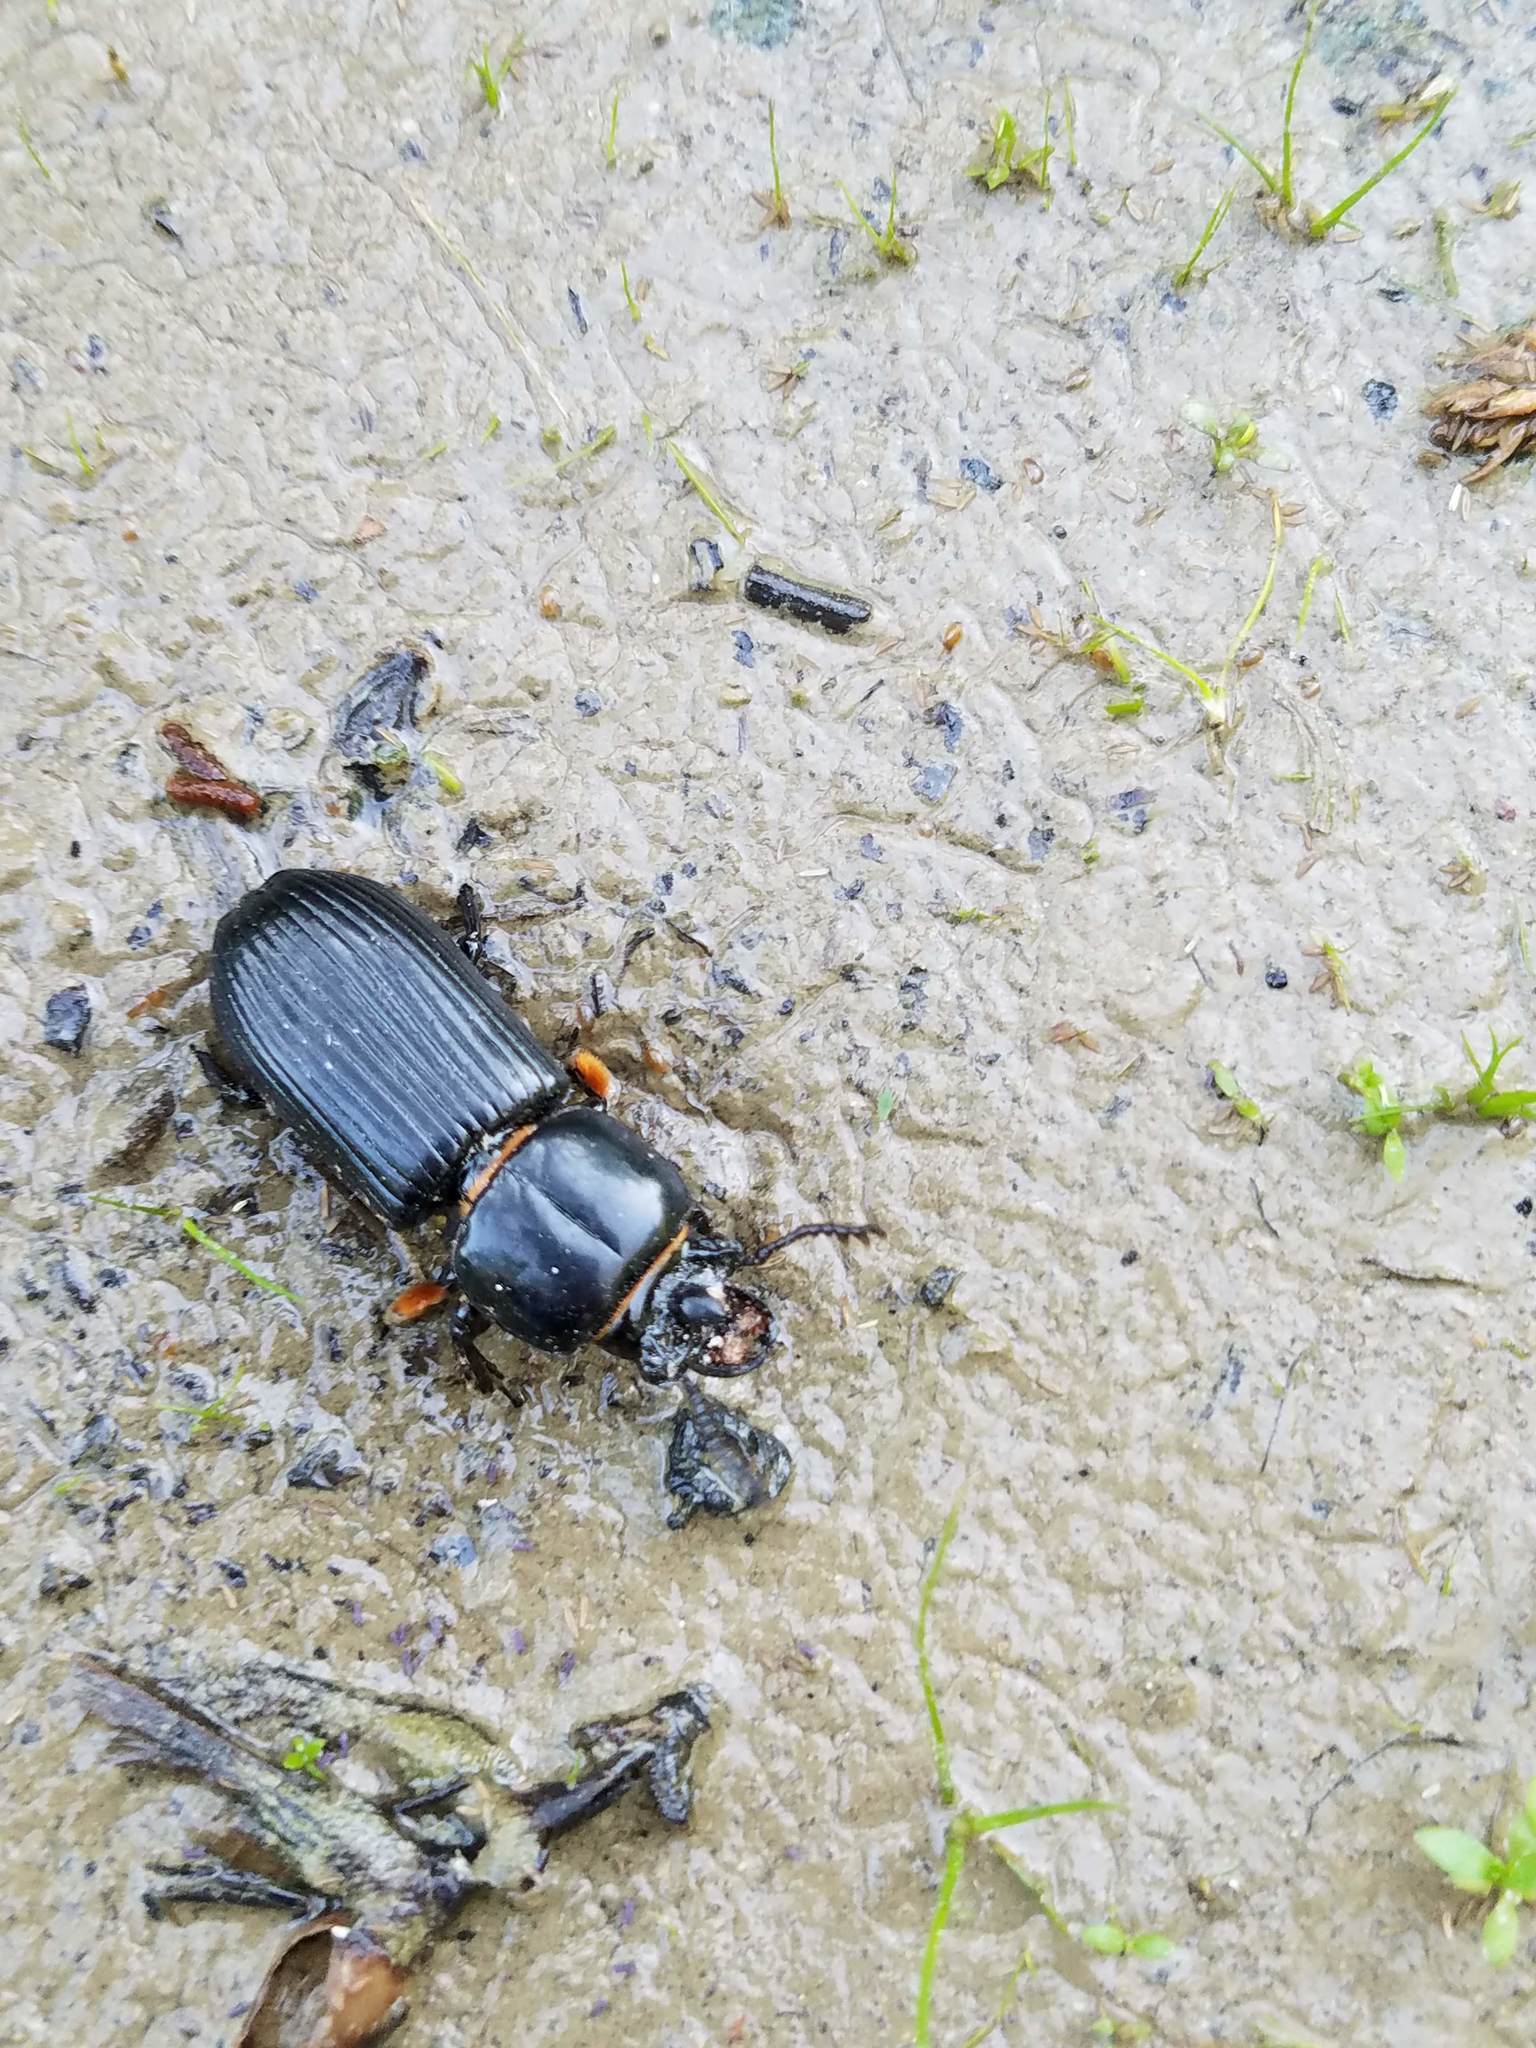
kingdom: Animalia
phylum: Arthropoda
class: Insecta
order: Coleoptera
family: Passalidae
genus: Odontotaenius
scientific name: Odontotaenius disjunctus
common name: Patent leather beetle
